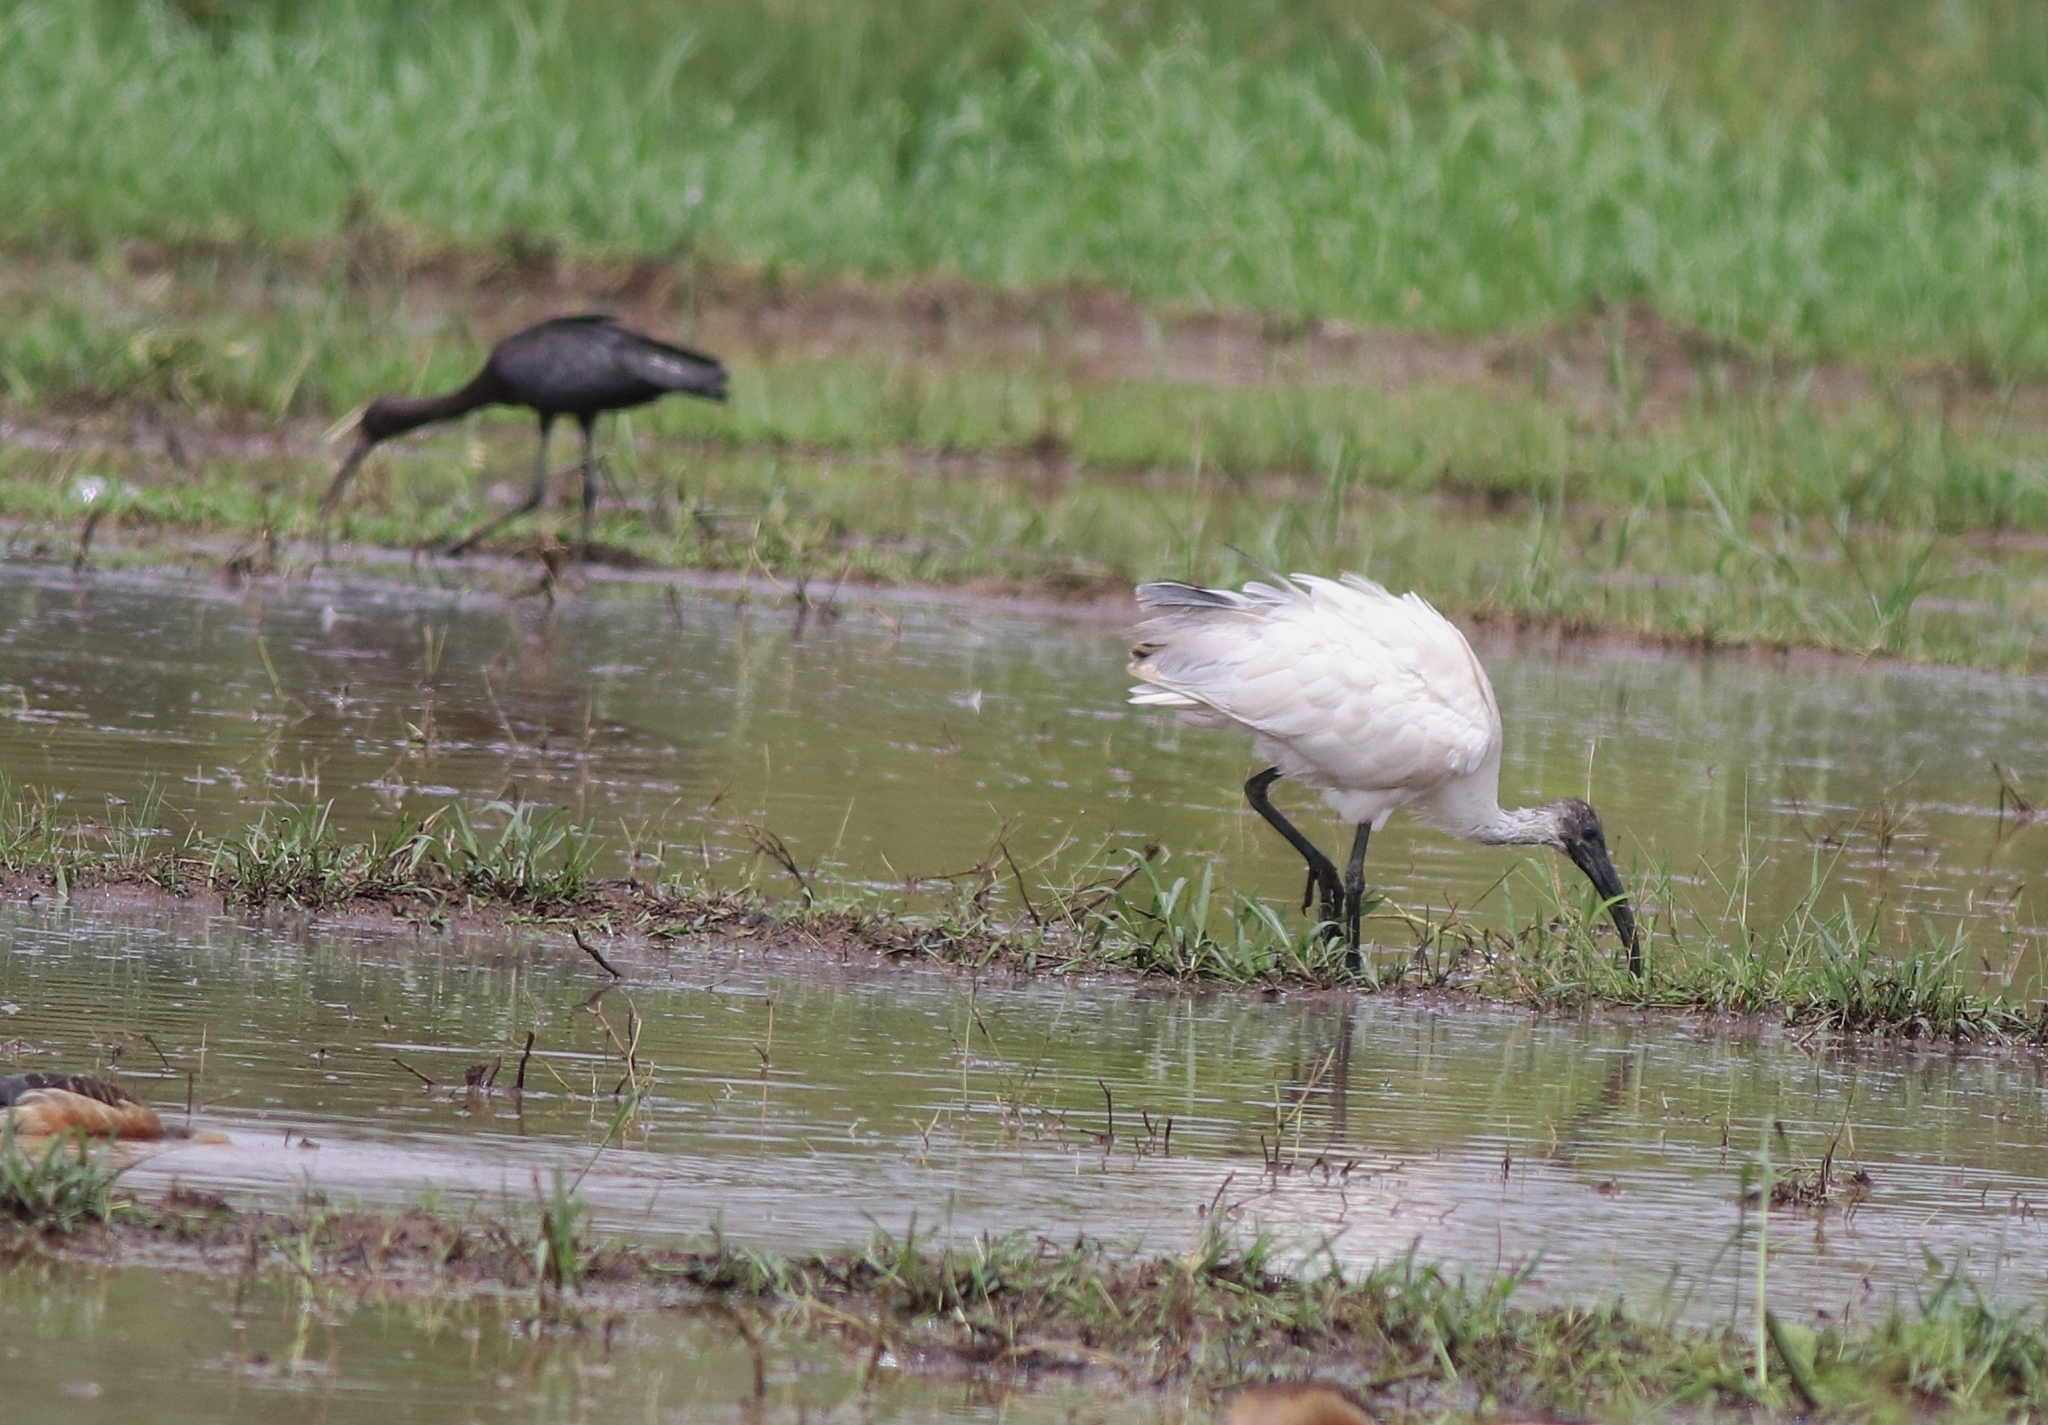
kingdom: Animalia
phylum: Chordata
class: Aves
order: Pelecaniformes
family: Threskiornithidae
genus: Plegadis
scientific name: Plegadis falcinellus
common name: Glossy ibis
